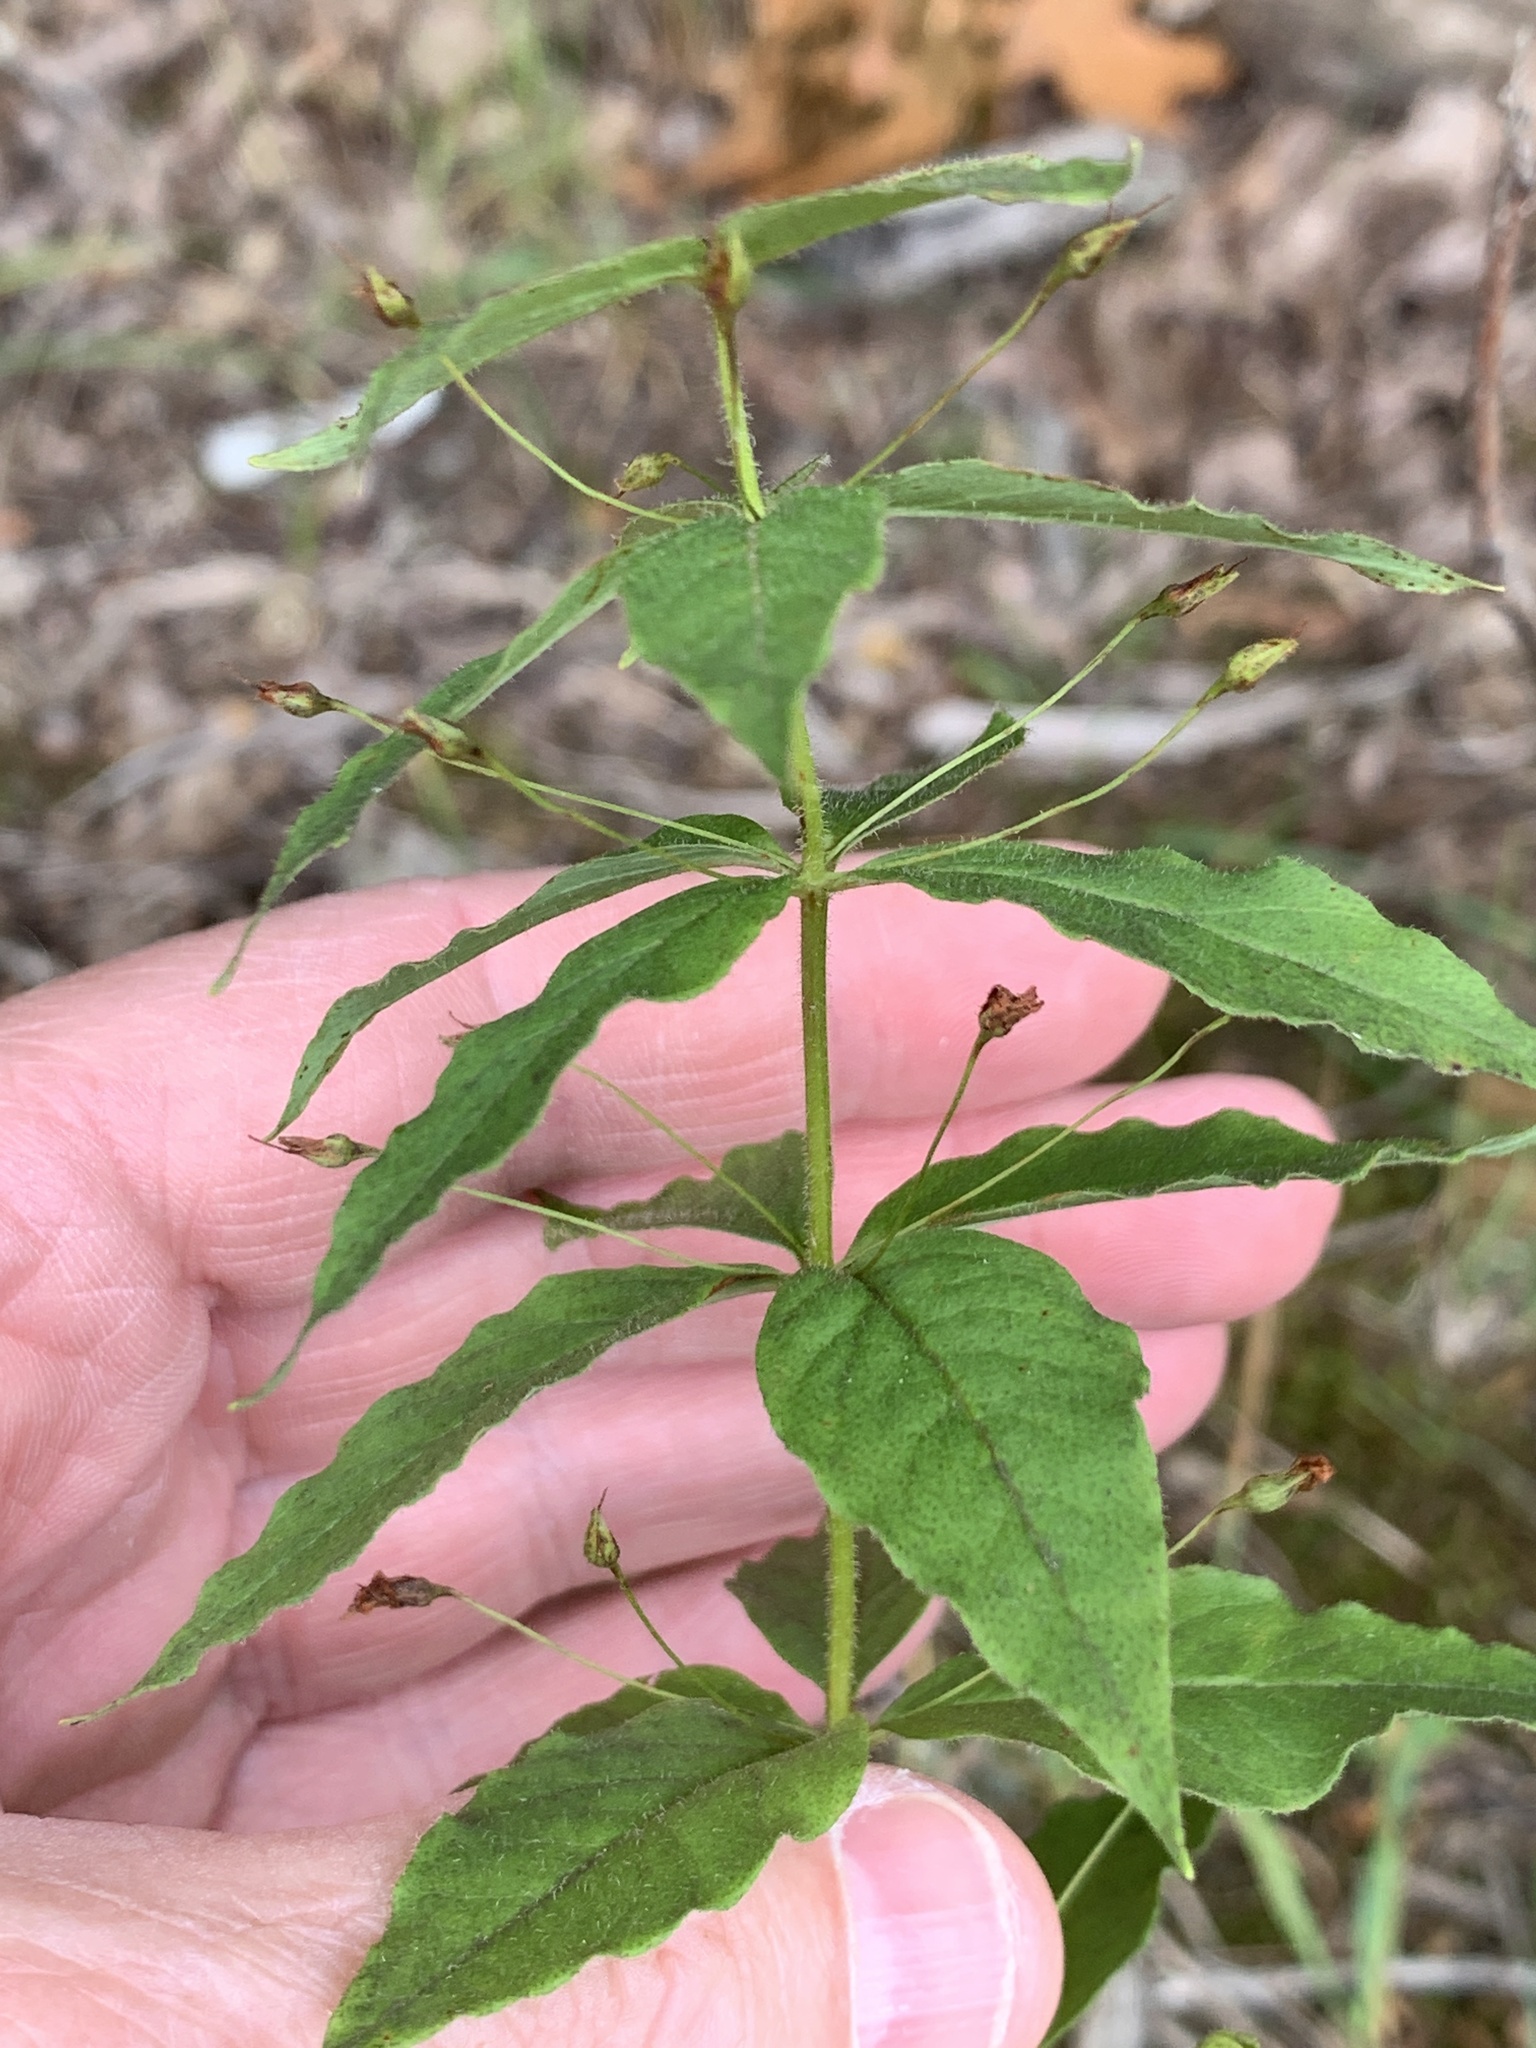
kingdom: Plantae
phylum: Tracheophyta
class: Magnoliopsida
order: Ericales
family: Primulaceae
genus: Lysimachia
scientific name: Lysimachia quadrifolia
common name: Whorled loosestrife
